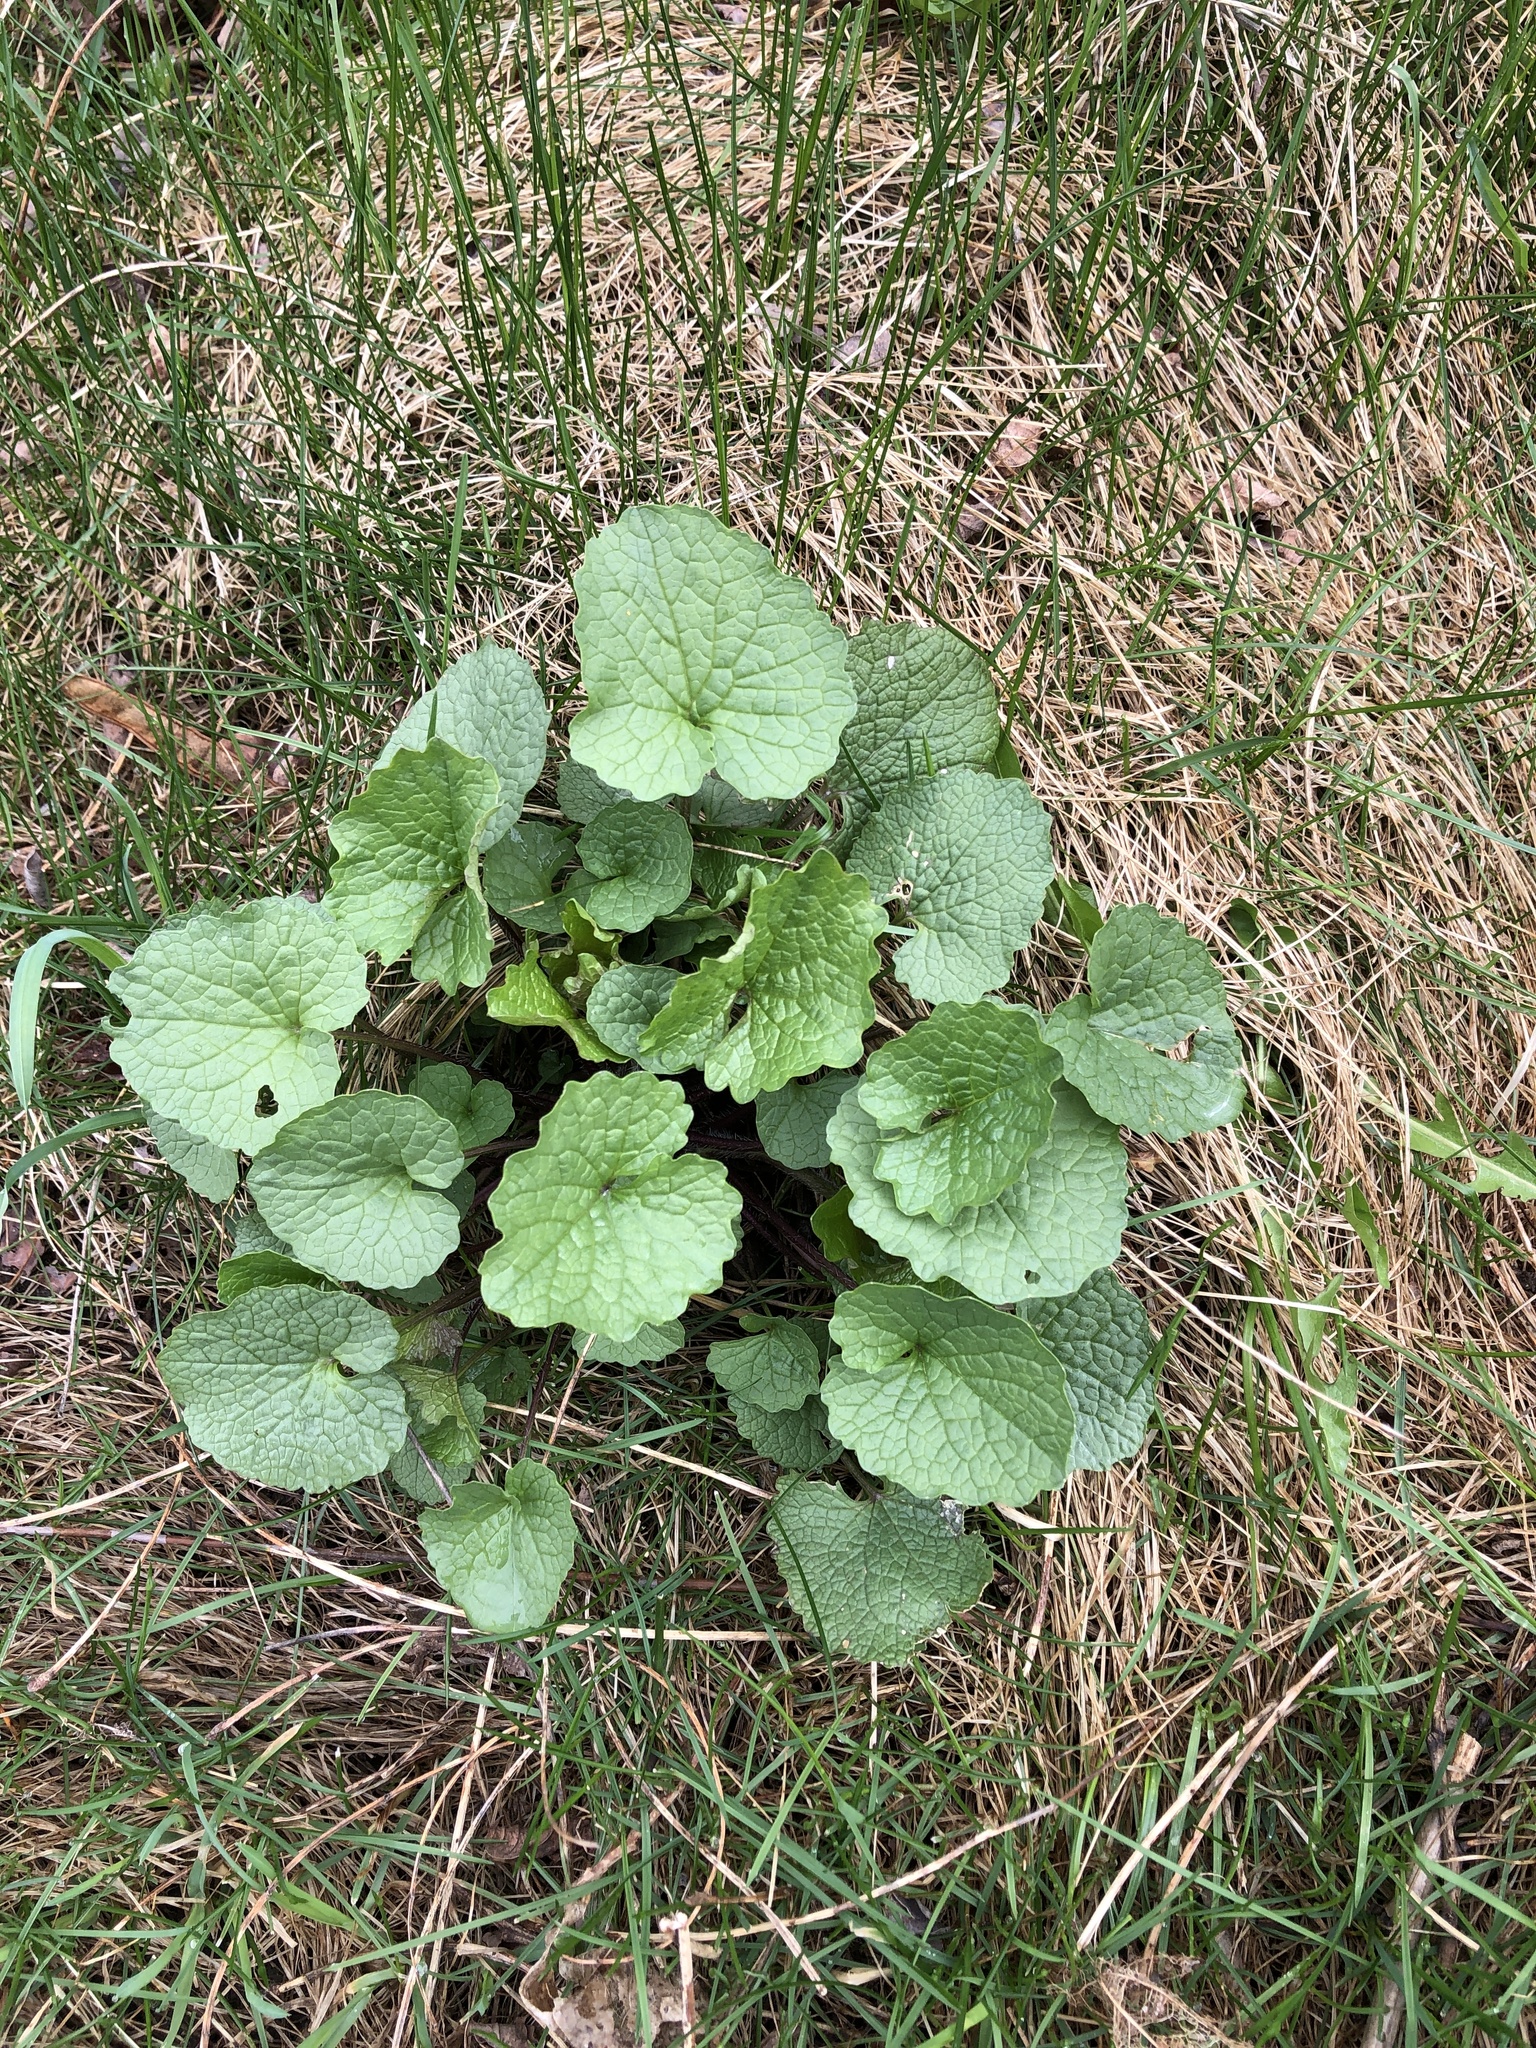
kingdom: Plantae
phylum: Tracheophyta
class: Magnoliopsida
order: Brassicales
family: Brassicaceae
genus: Alliaria
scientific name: Alliaria petiolata
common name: Garlic mustard
